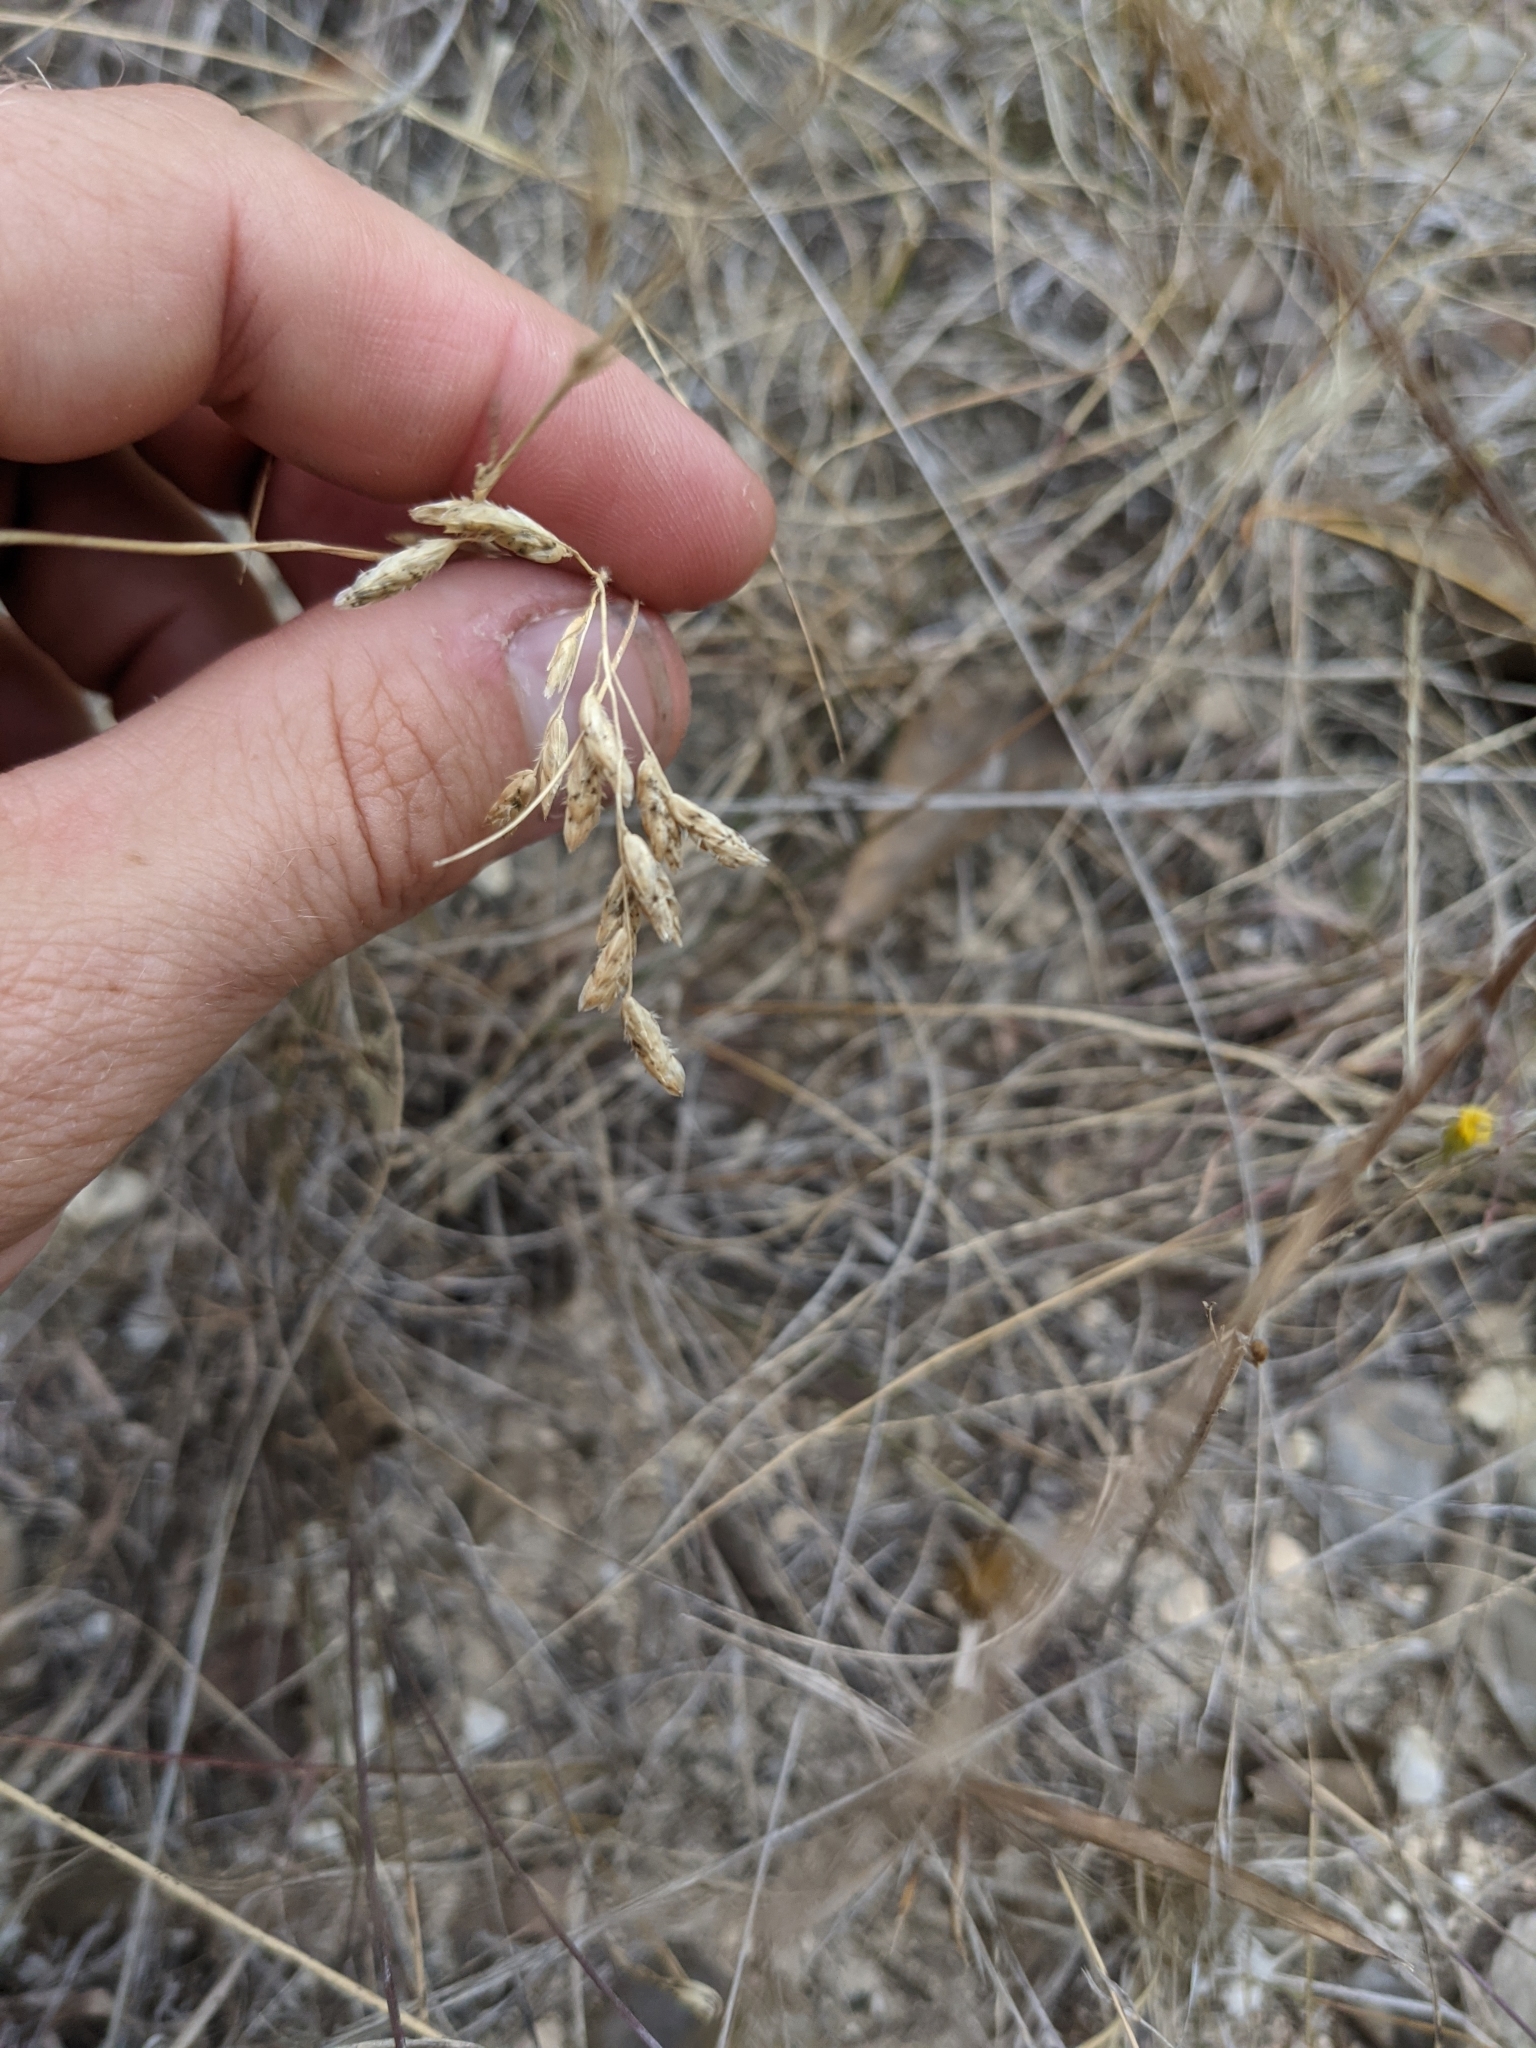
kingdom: Plantae
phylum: Tracheophyta
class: Liliopsida
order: Poales
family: Poaceae
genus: Tridens
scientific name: Tridens texanus
